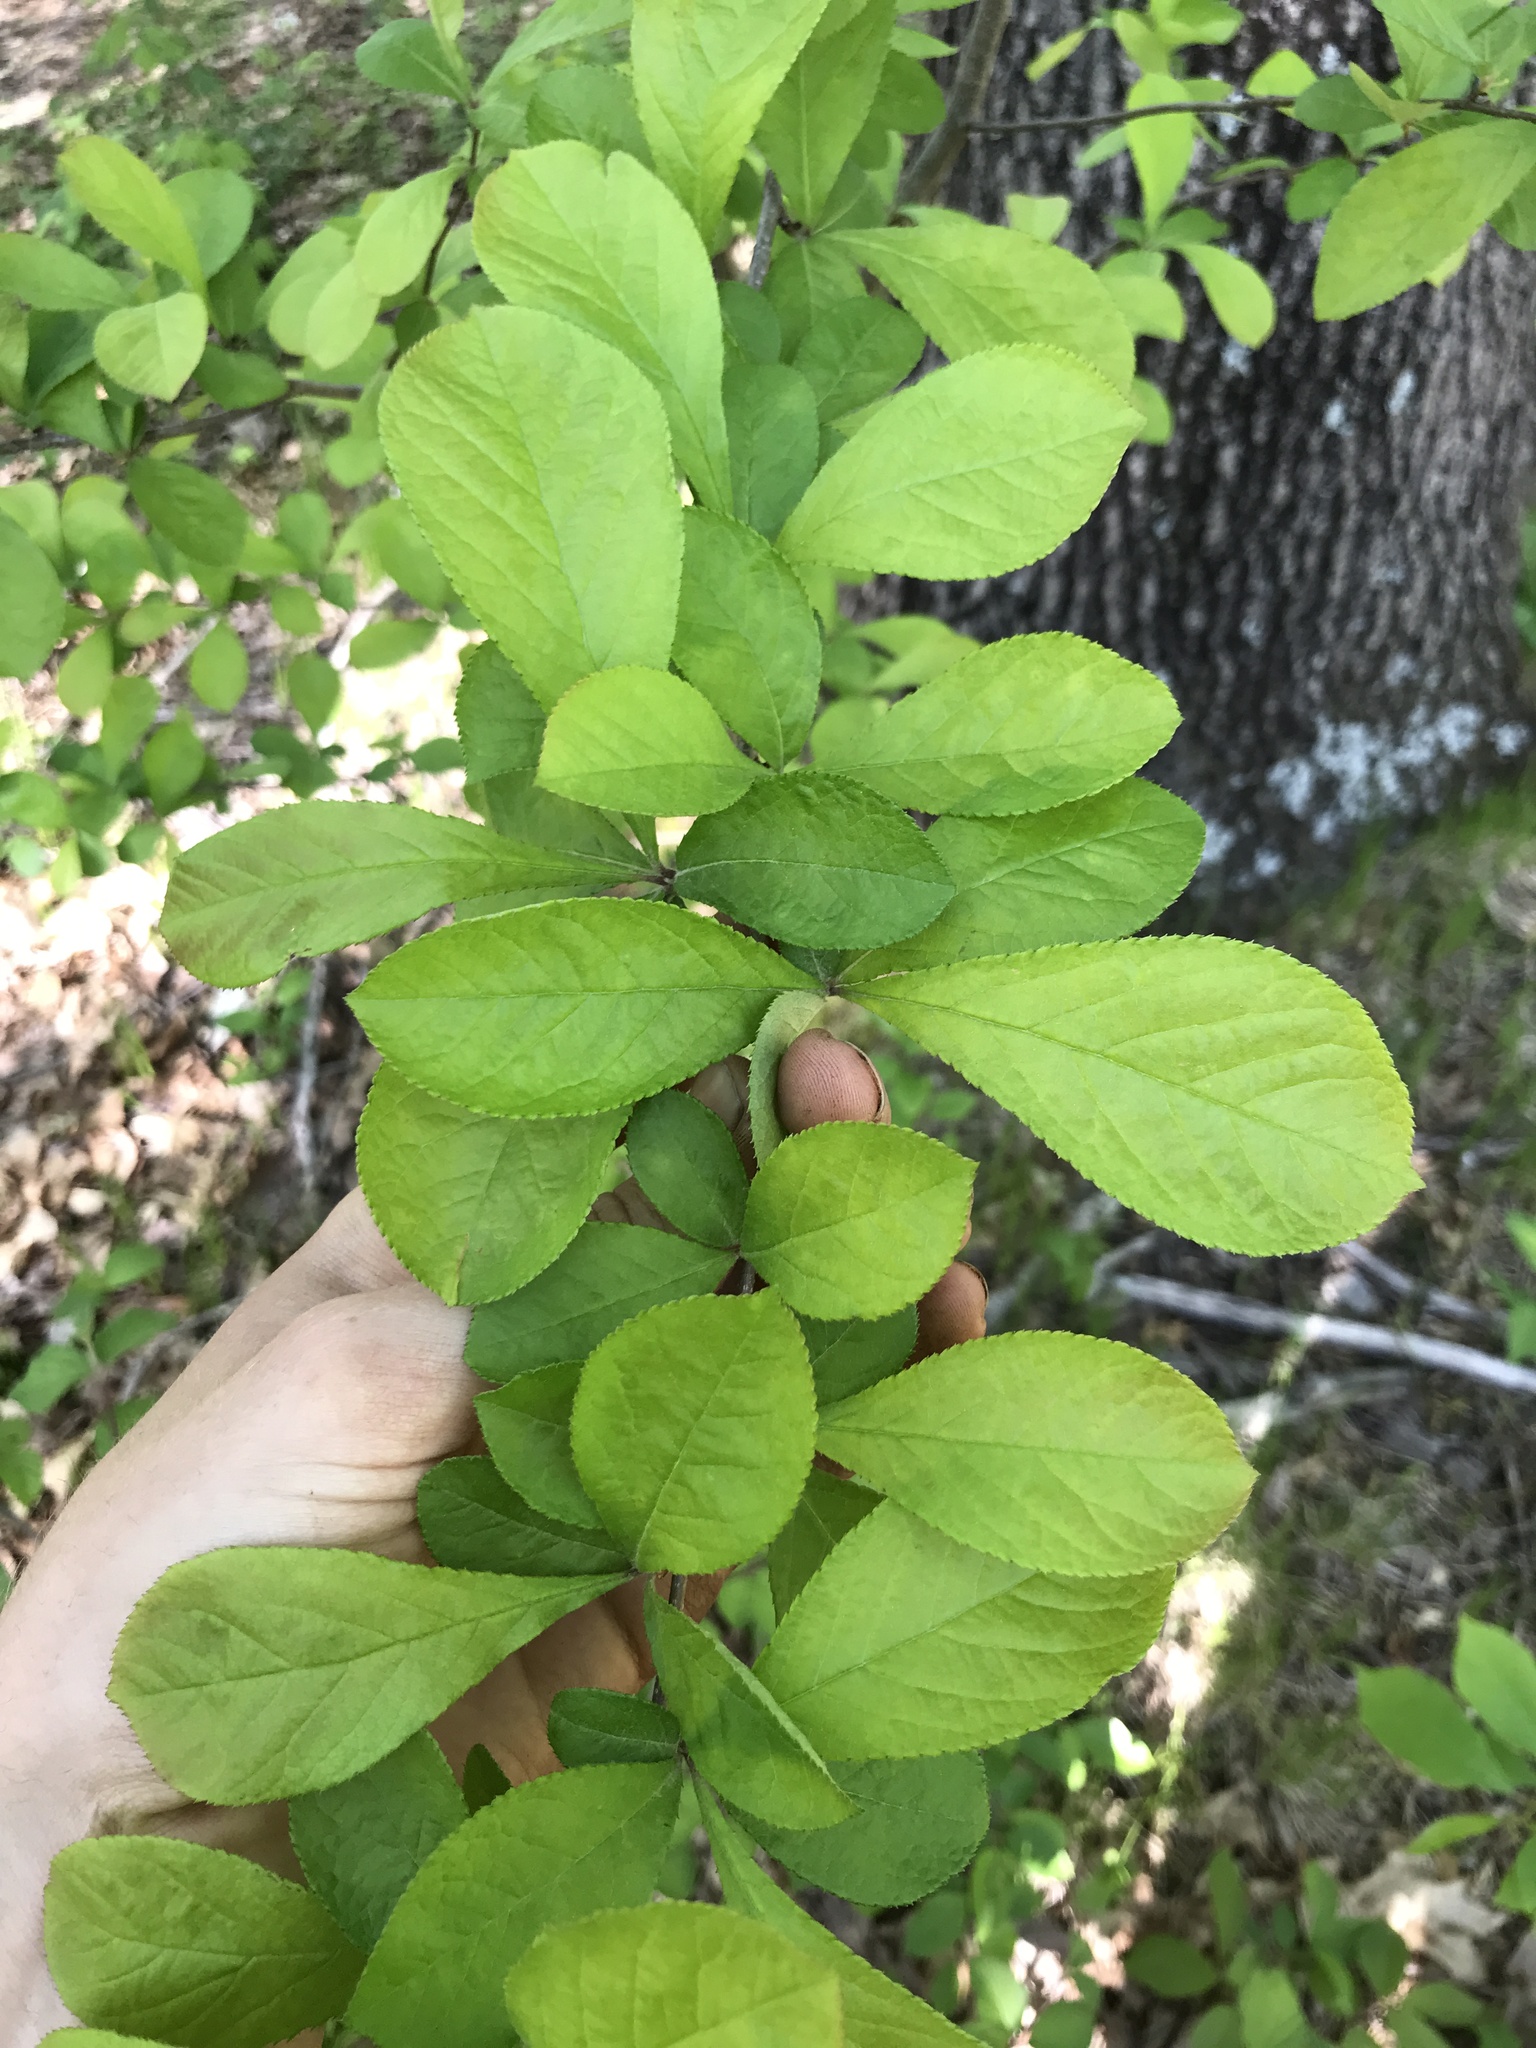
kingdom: Plantae
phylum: Tracheophyta
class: Magnoliopsida
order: Rosales
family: Rosaceae
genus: Pourthiaea
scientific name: Pourthiaea villosa
